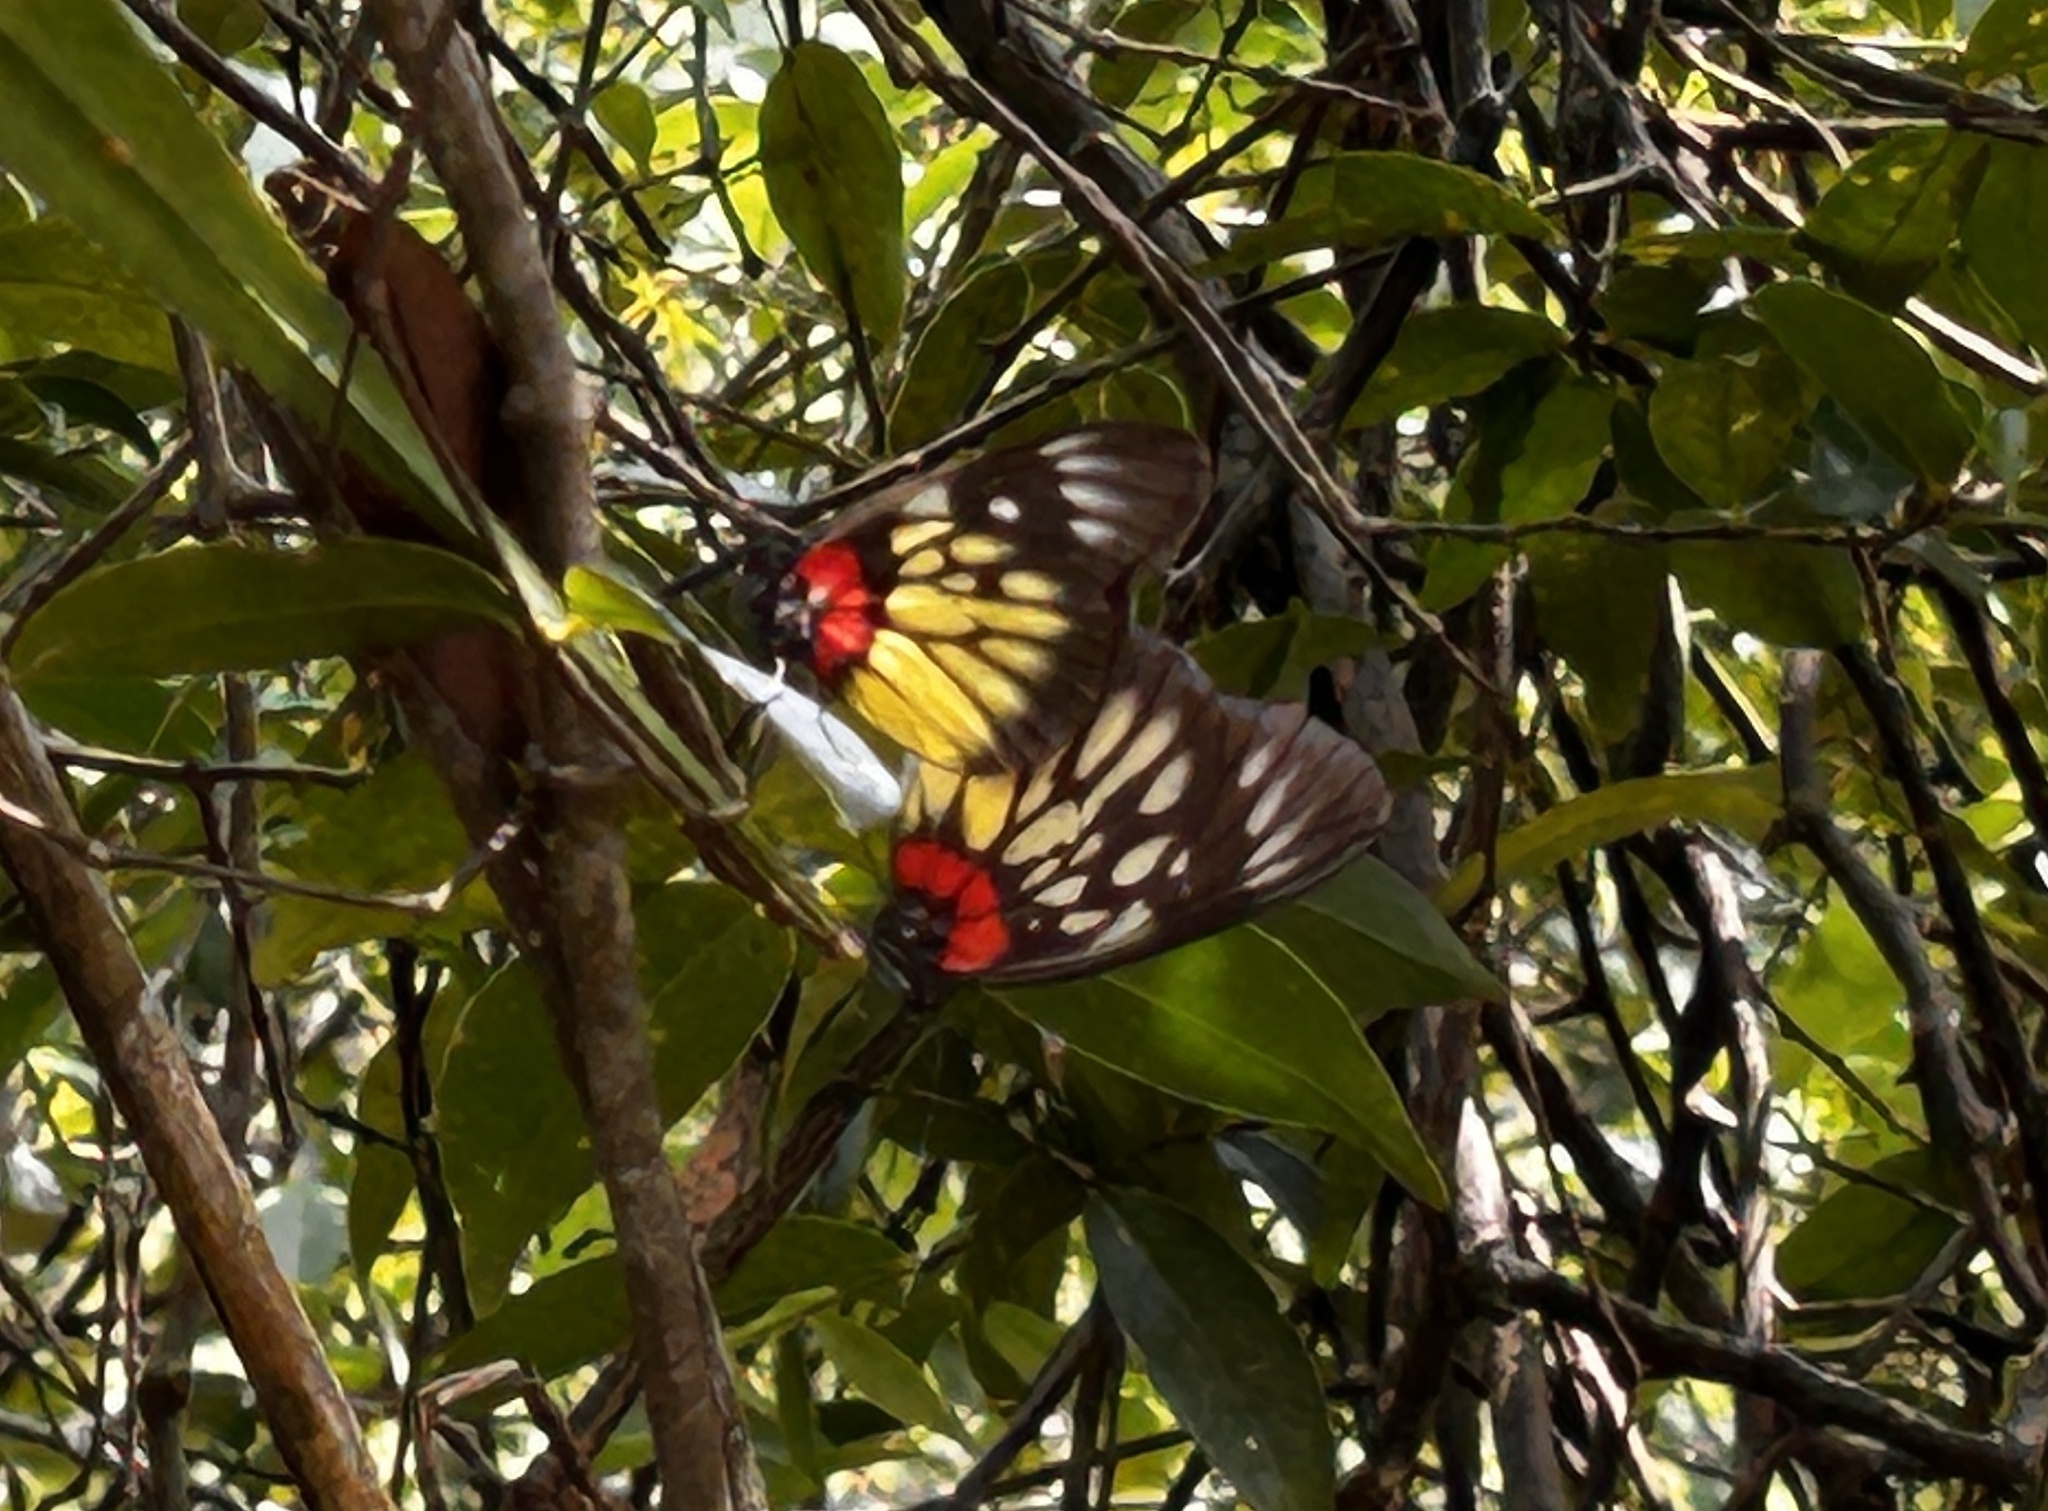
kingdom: Animalia
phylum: Arthropoda
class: Insecta
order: Lepidoptera
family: Pieridae
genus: Delias
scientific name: Delias pasithoe
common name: Red-base jezebel
